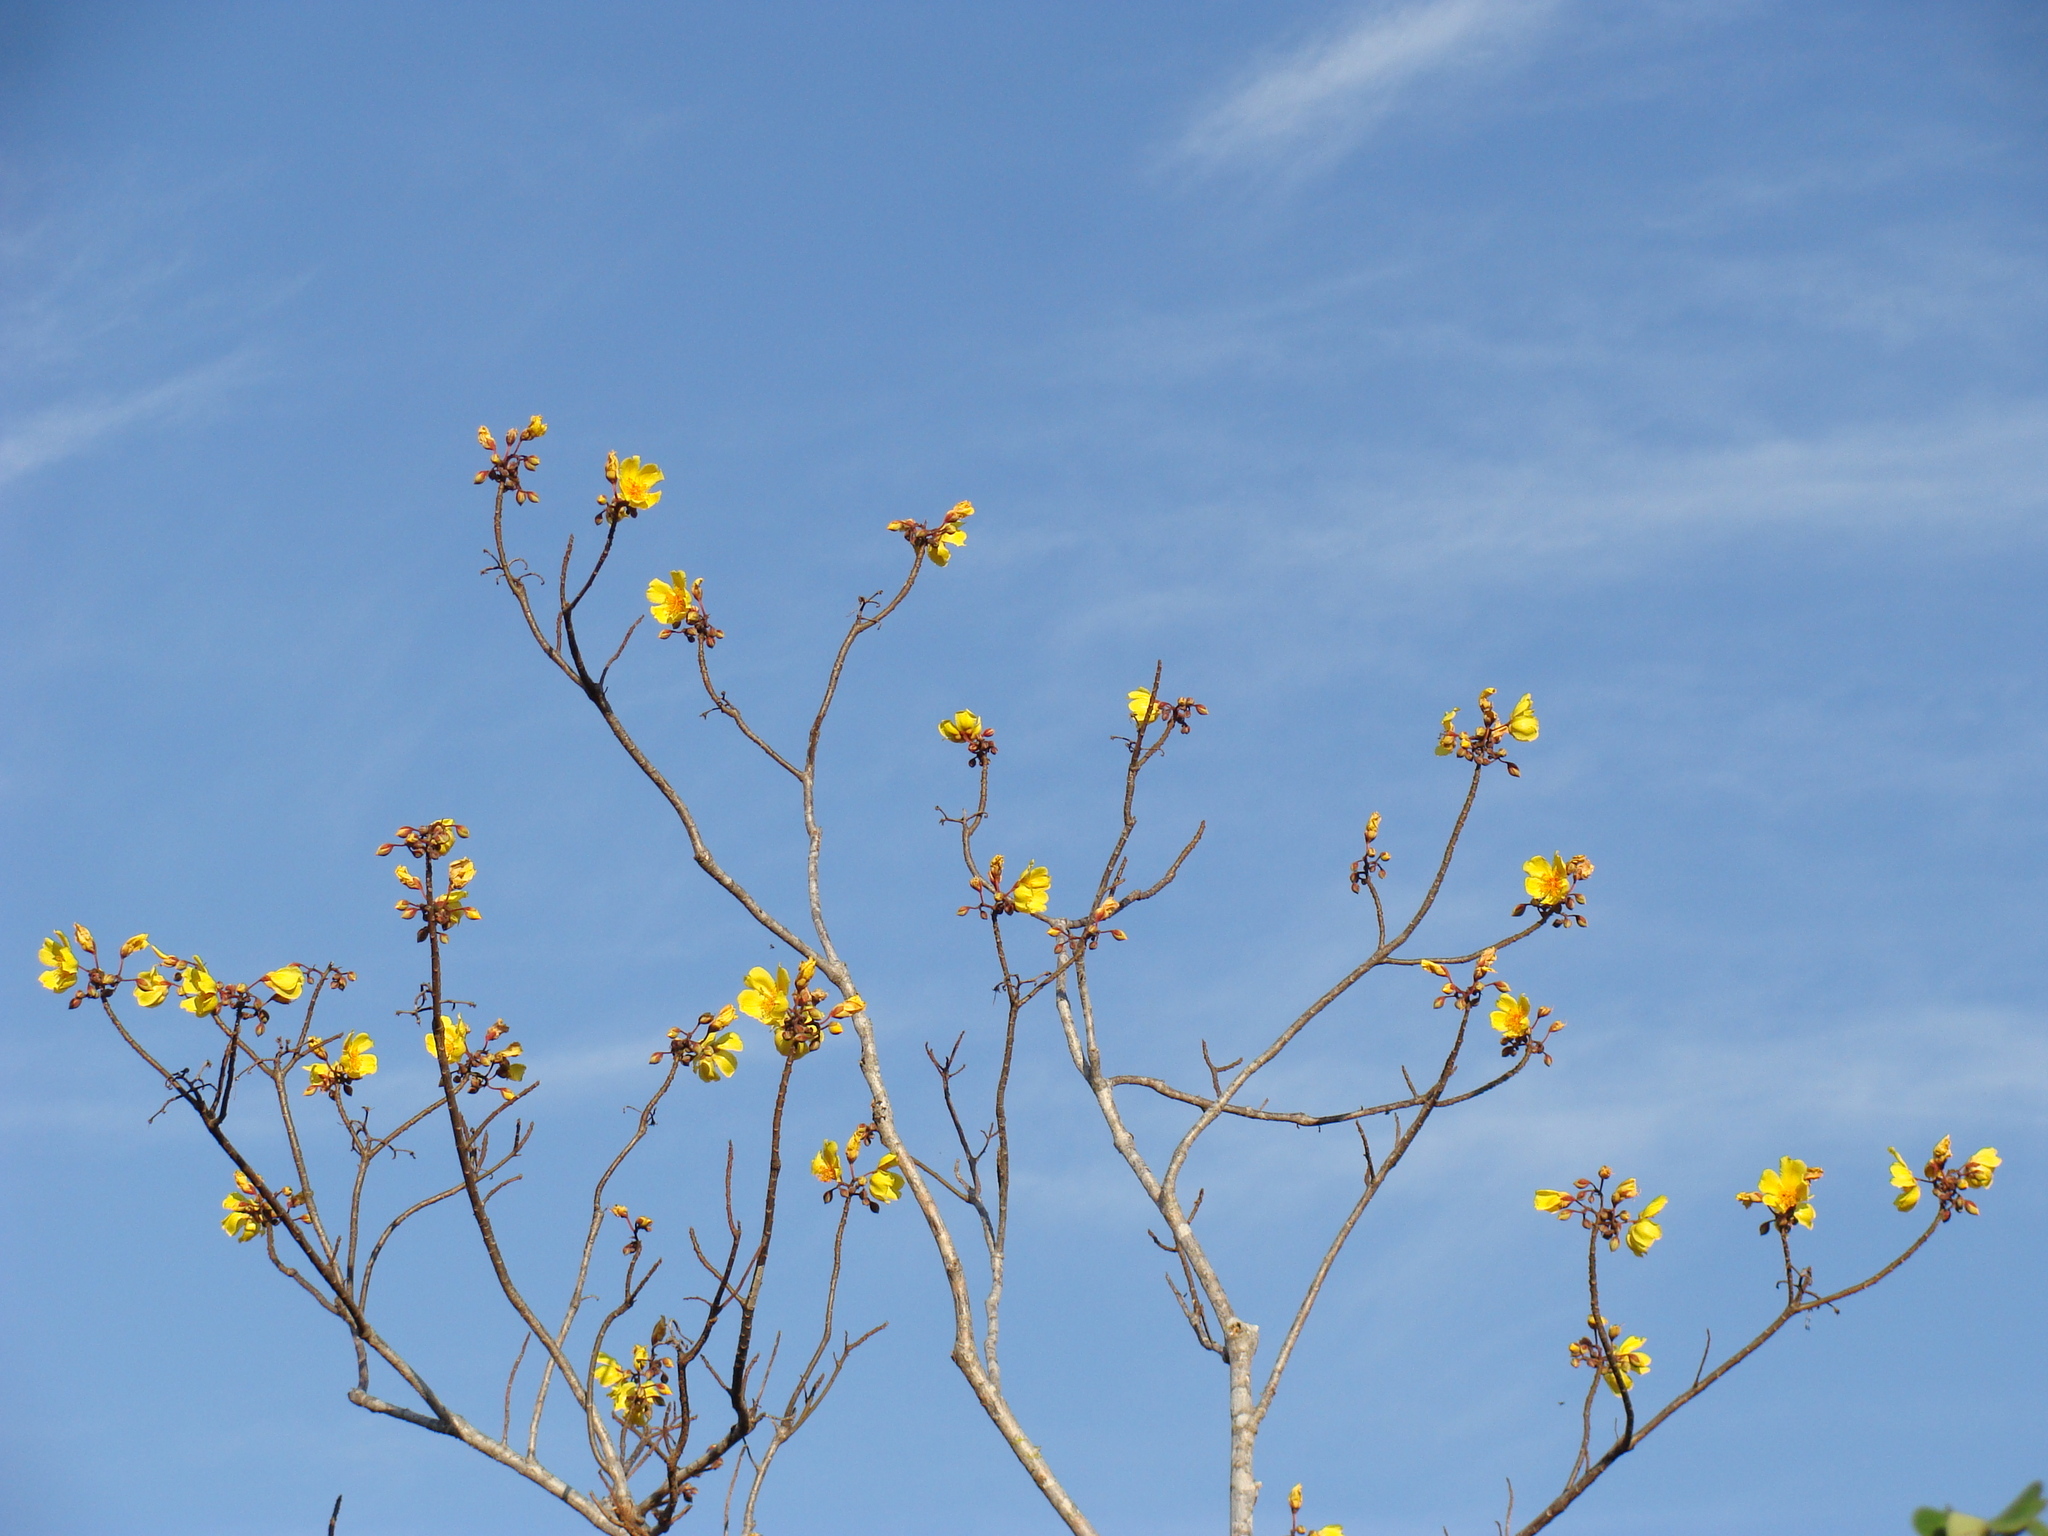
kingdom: Plantae
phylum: Tracheophyta
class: Magnoliopsida
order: Malvales
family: Cochlospermaceae
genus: Cochlospermum
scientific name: Cochlospermum vitifolium
